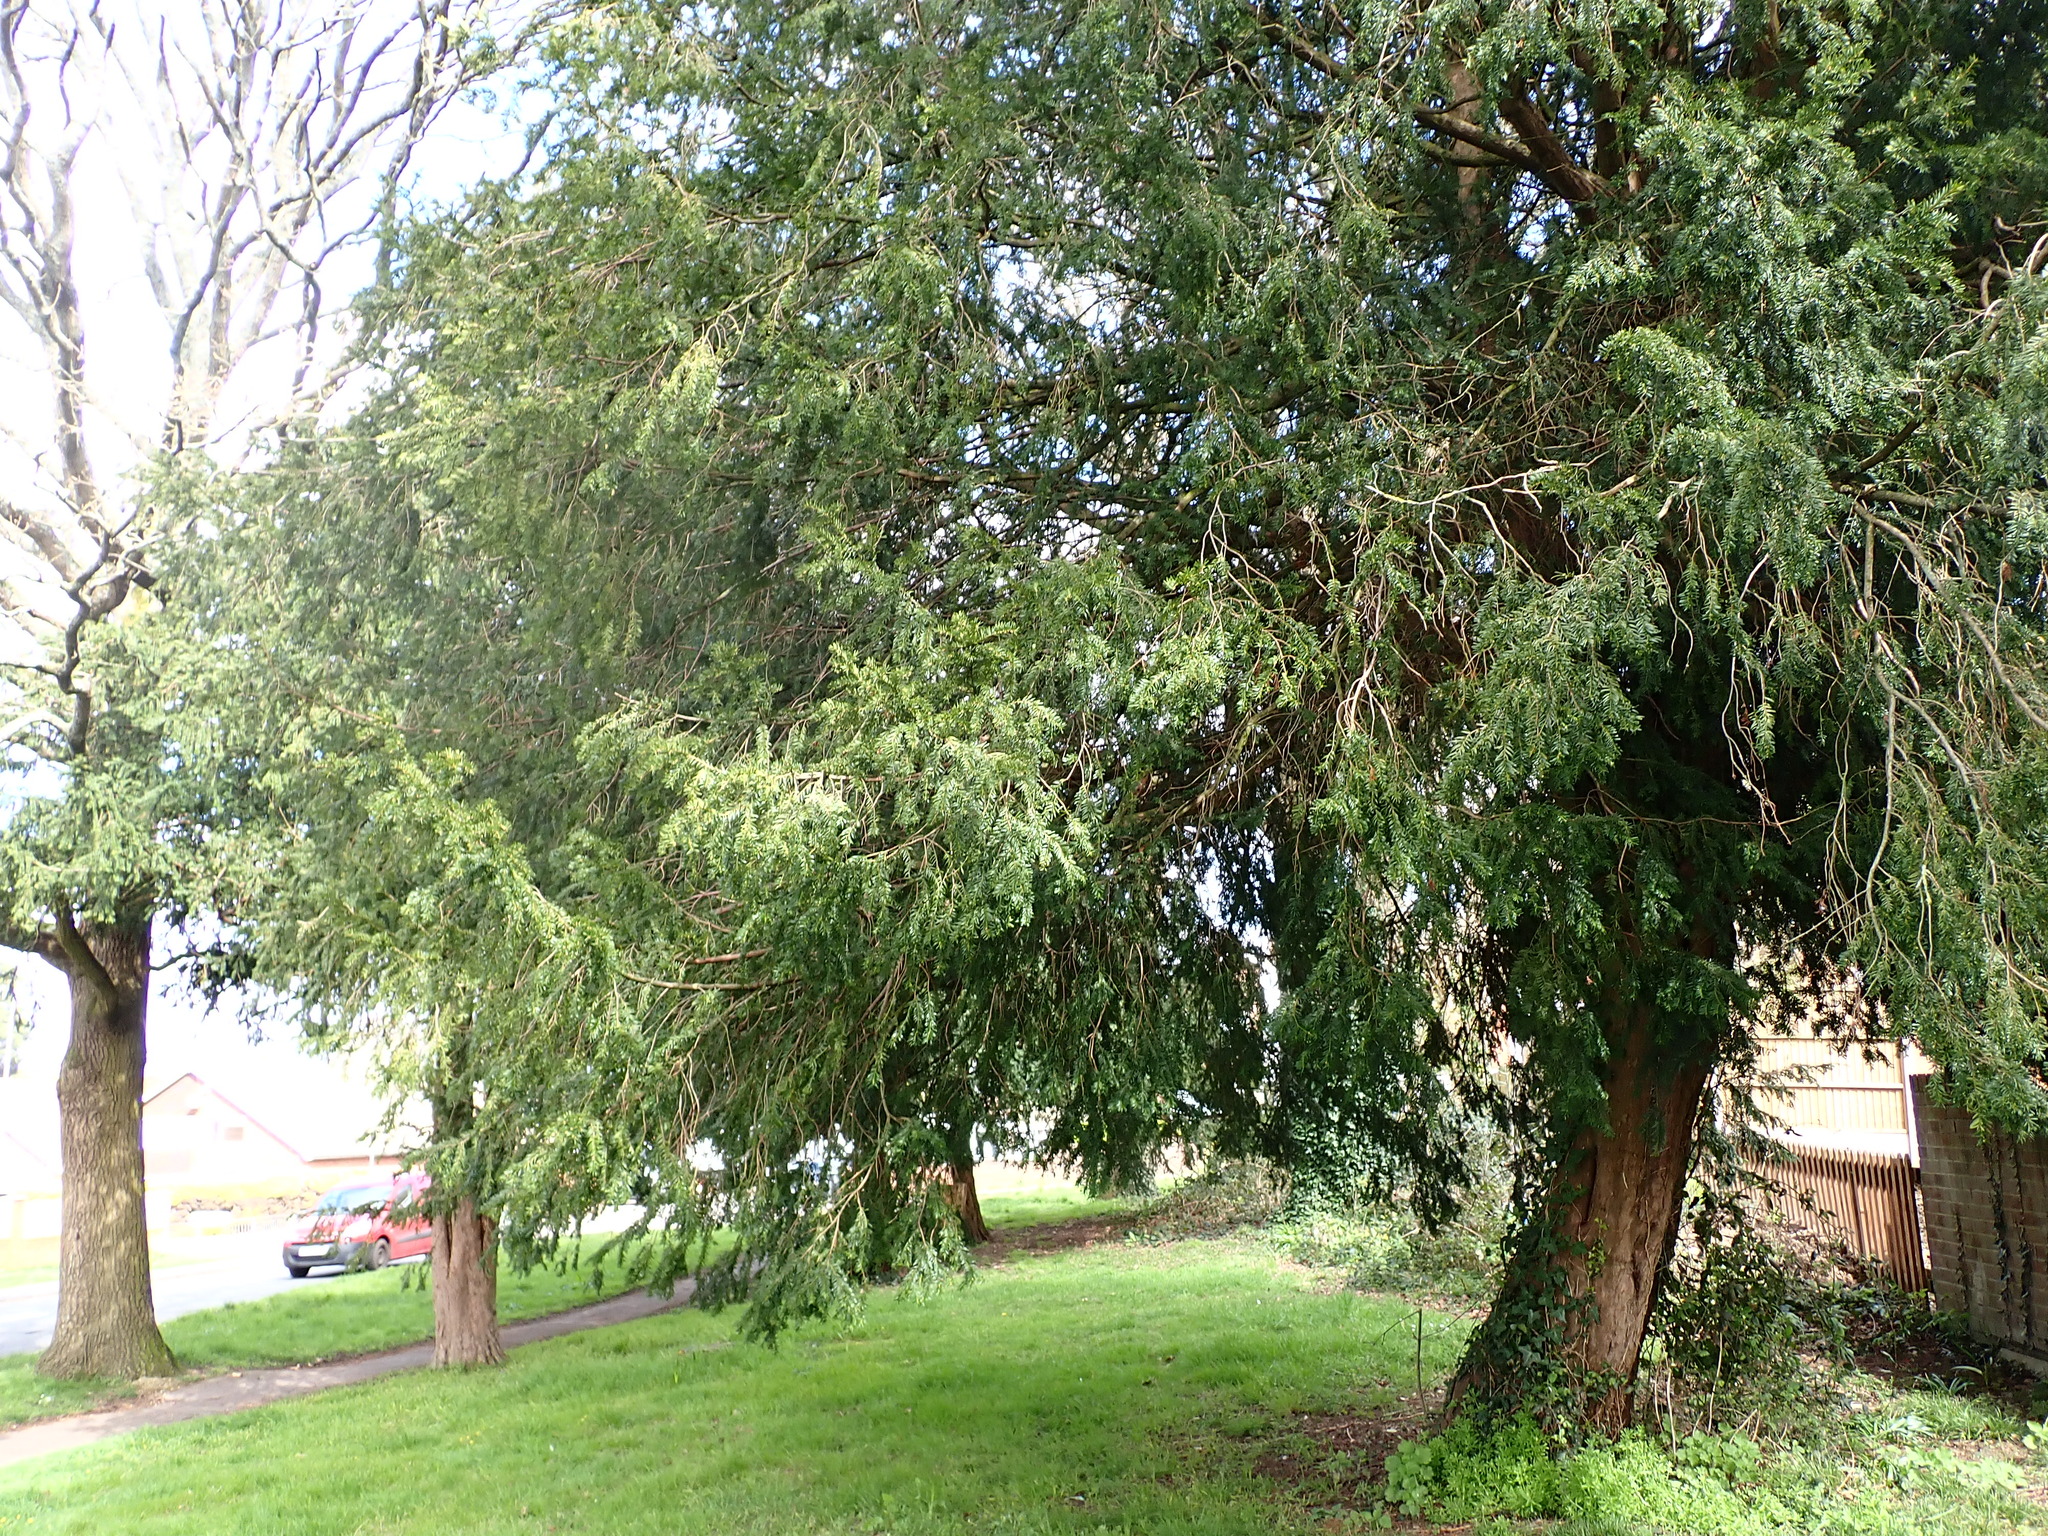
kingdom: Plantae
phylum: Tracheophyta
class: Pinopsida
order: Pinales
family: Taxaceae
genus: Taxus
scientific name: Taxus baccata
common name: Yew
